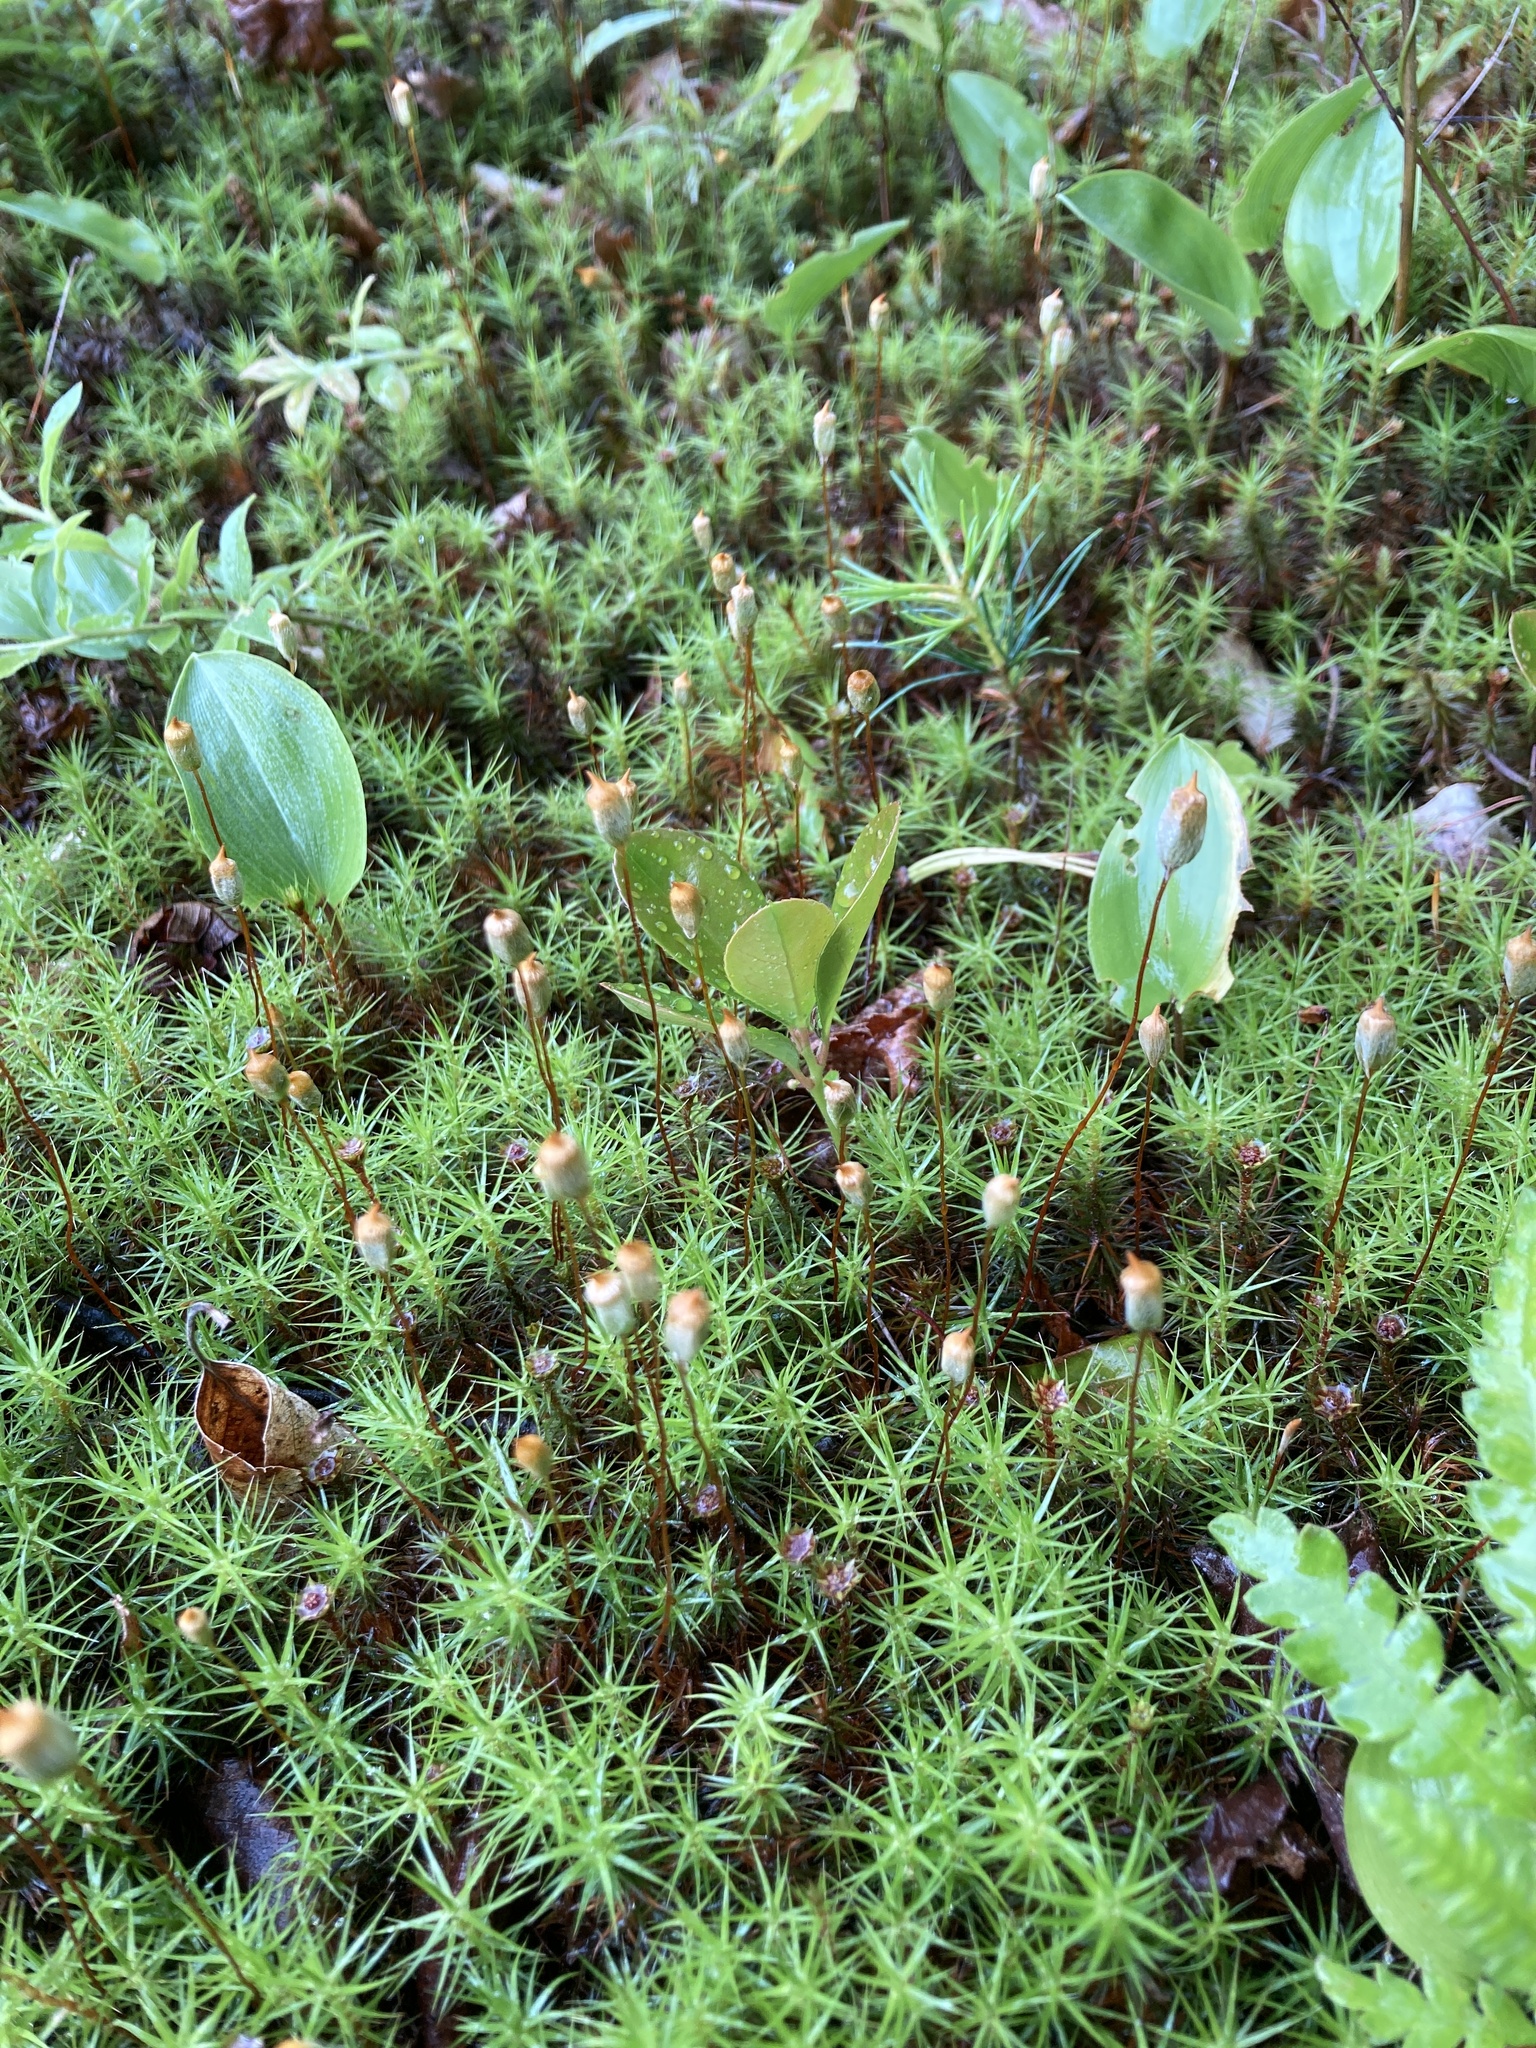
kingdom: Plantae
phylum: Bryophyta
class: Polytrichopsida
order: Polytrichales
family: Polytrichaceae
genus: Polytrichum
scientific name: Polytrichum commune
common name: Common haircap
